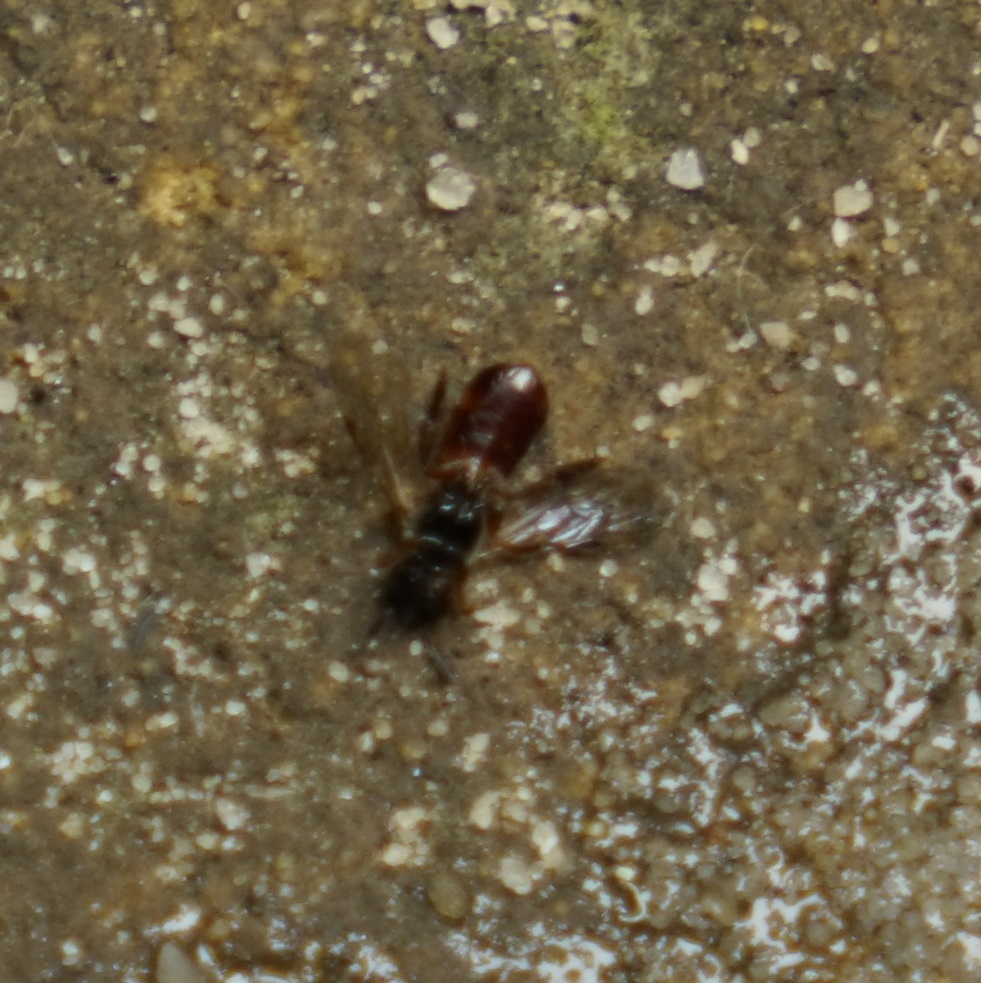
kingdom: Animalia
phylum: Arthropoda
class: Insecta
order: Hymenoptera
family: Apidae
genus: Exoneura
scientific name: Exoneura
